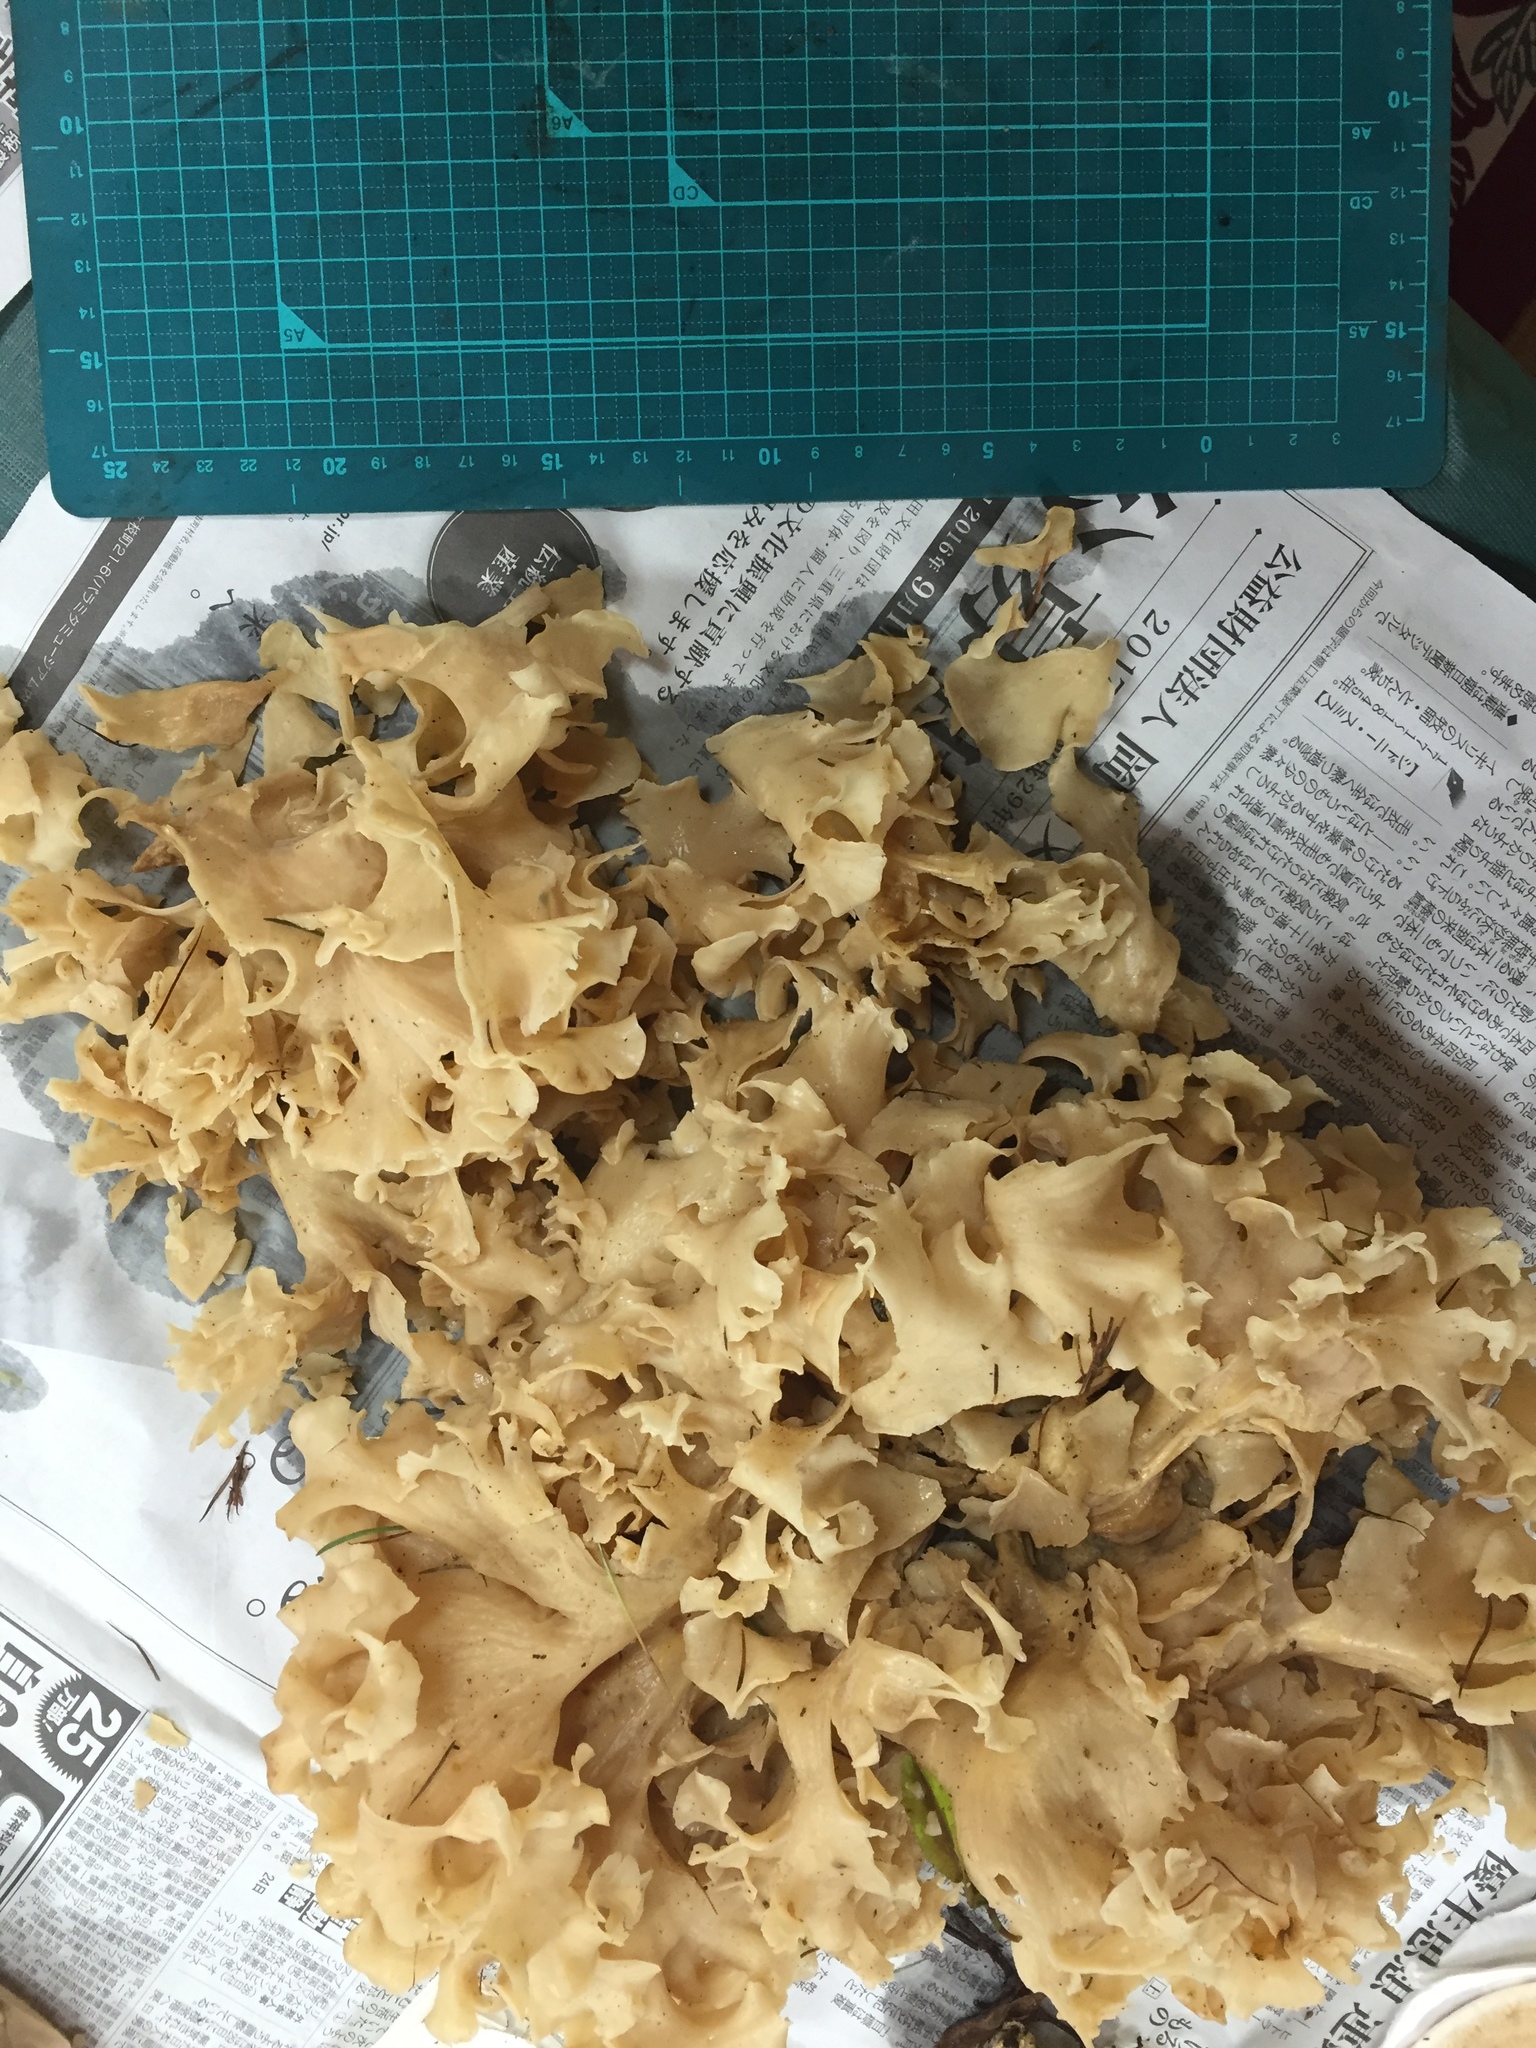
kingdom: Fungi
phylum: Basidiomycota
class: Agaricomycetes
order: Polyporales
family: Sparassidaceae
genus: Sparassis
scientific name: Sparassis crispa
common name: Brain fungus
